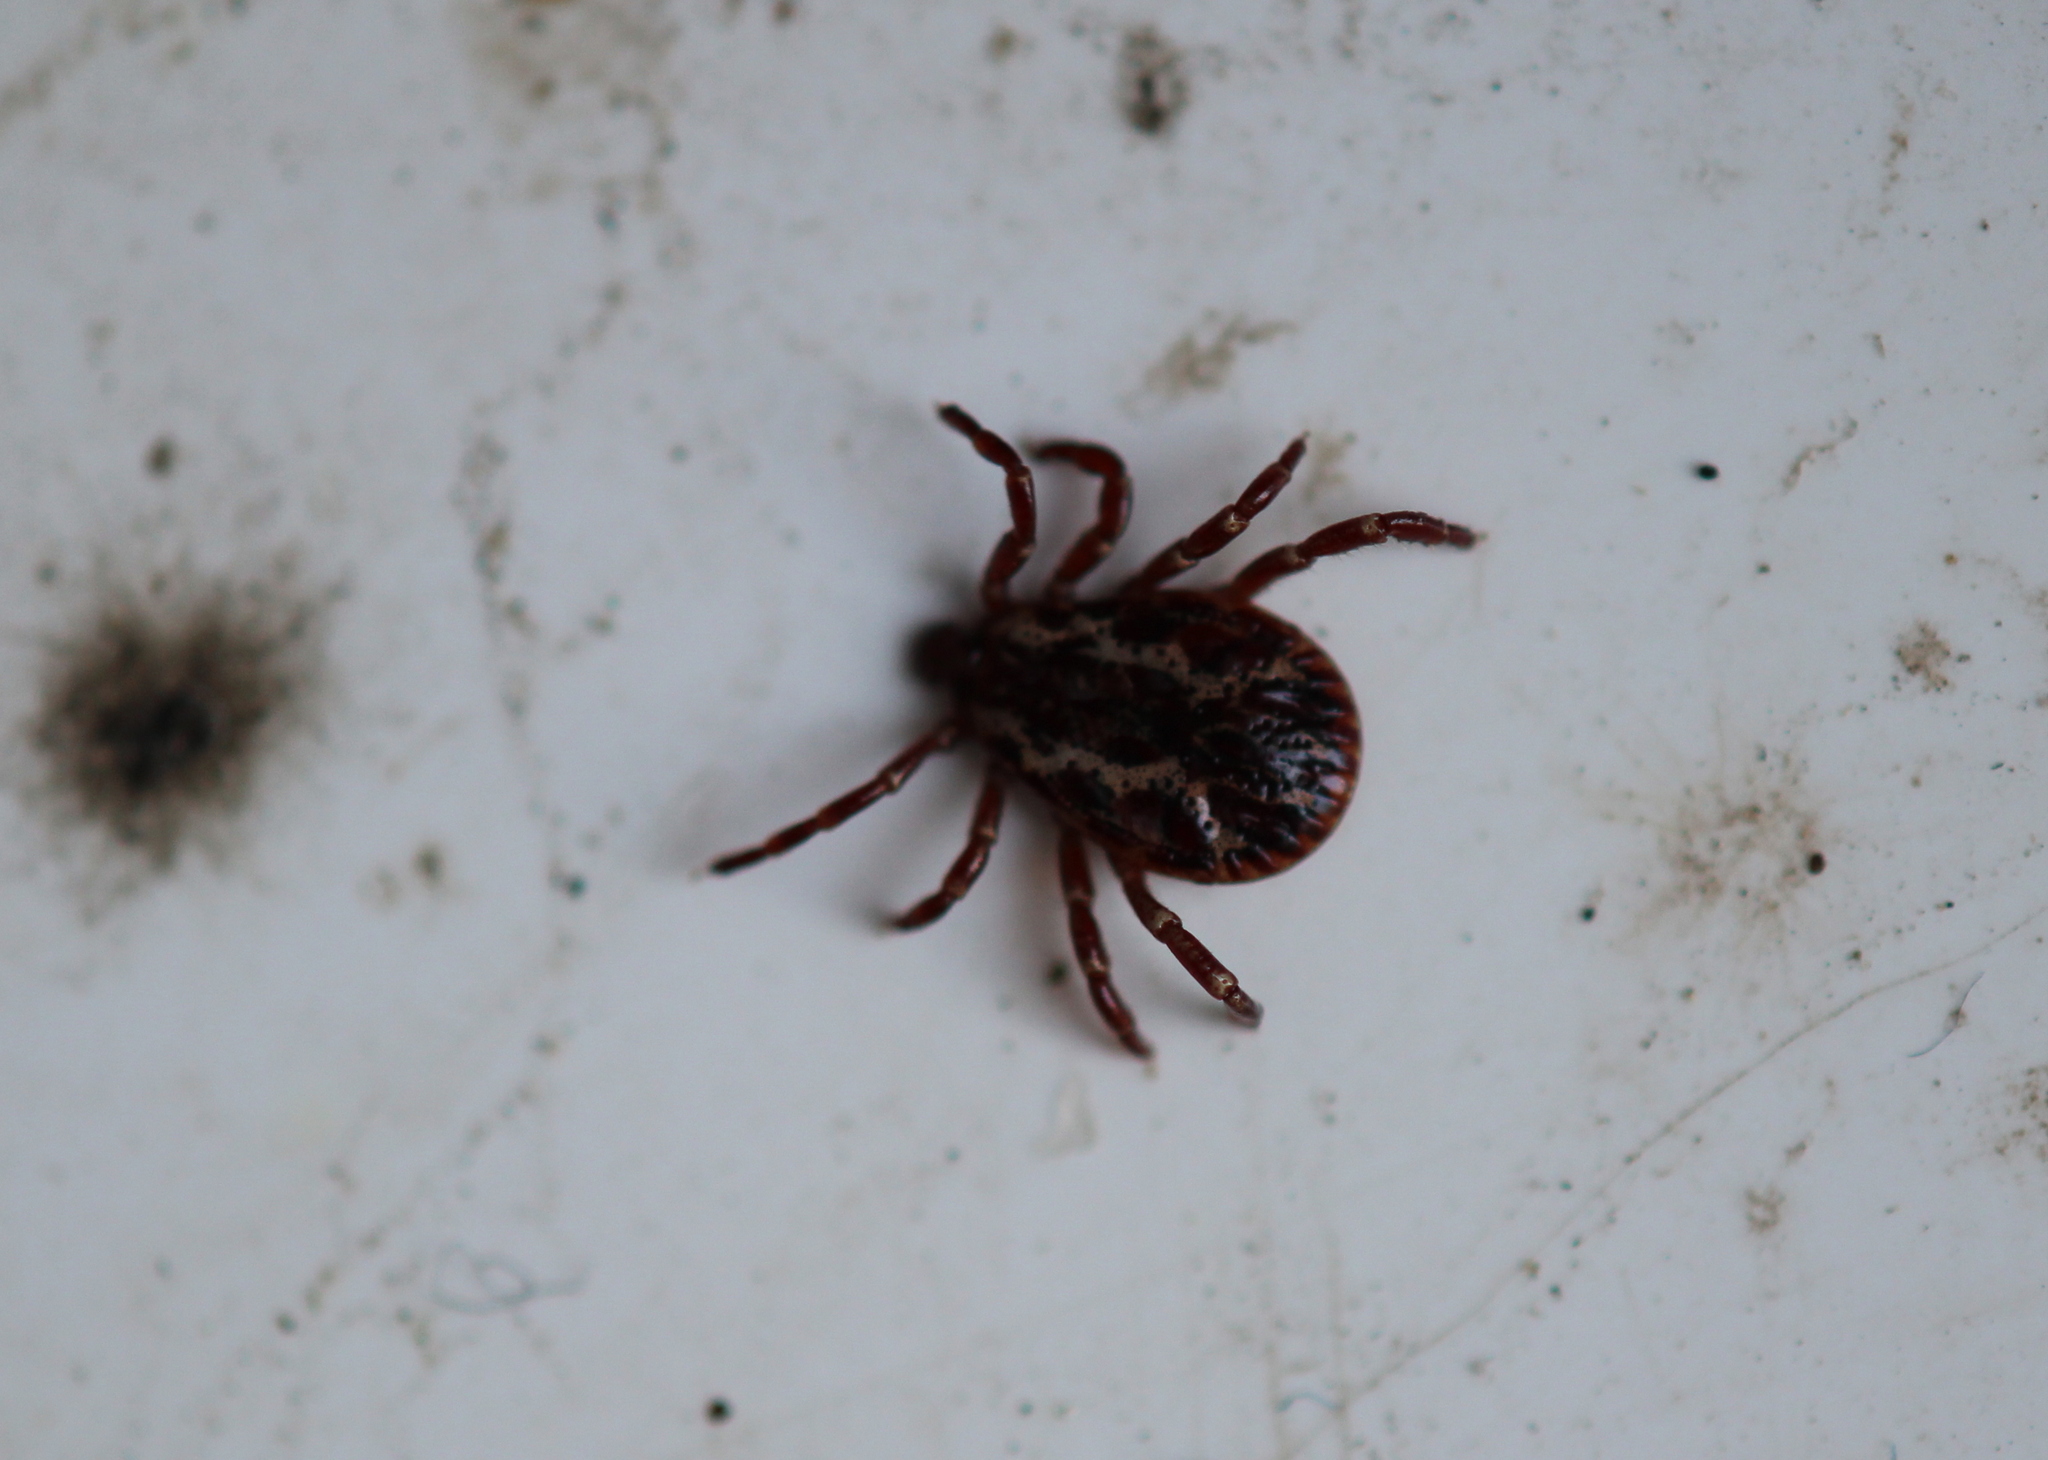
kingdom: Animalia
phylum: Arthropoda
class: Arachnida
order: Ixodida
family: Ixodidae
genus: Dermacentor
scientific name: Dermacentor variabilis
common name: American dog tick
